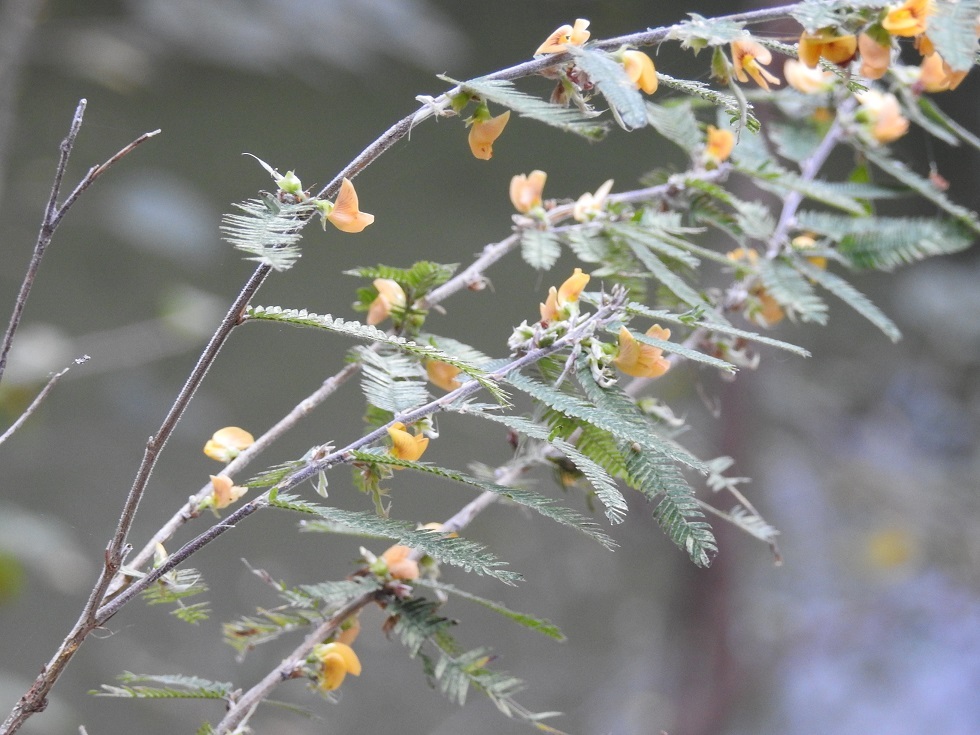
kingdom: Plantae
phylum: Tracheophyta
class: Magnoliopsida
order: Fabales
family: Fabaceae
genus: Ctenodon
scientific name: Ctenodon compactus
